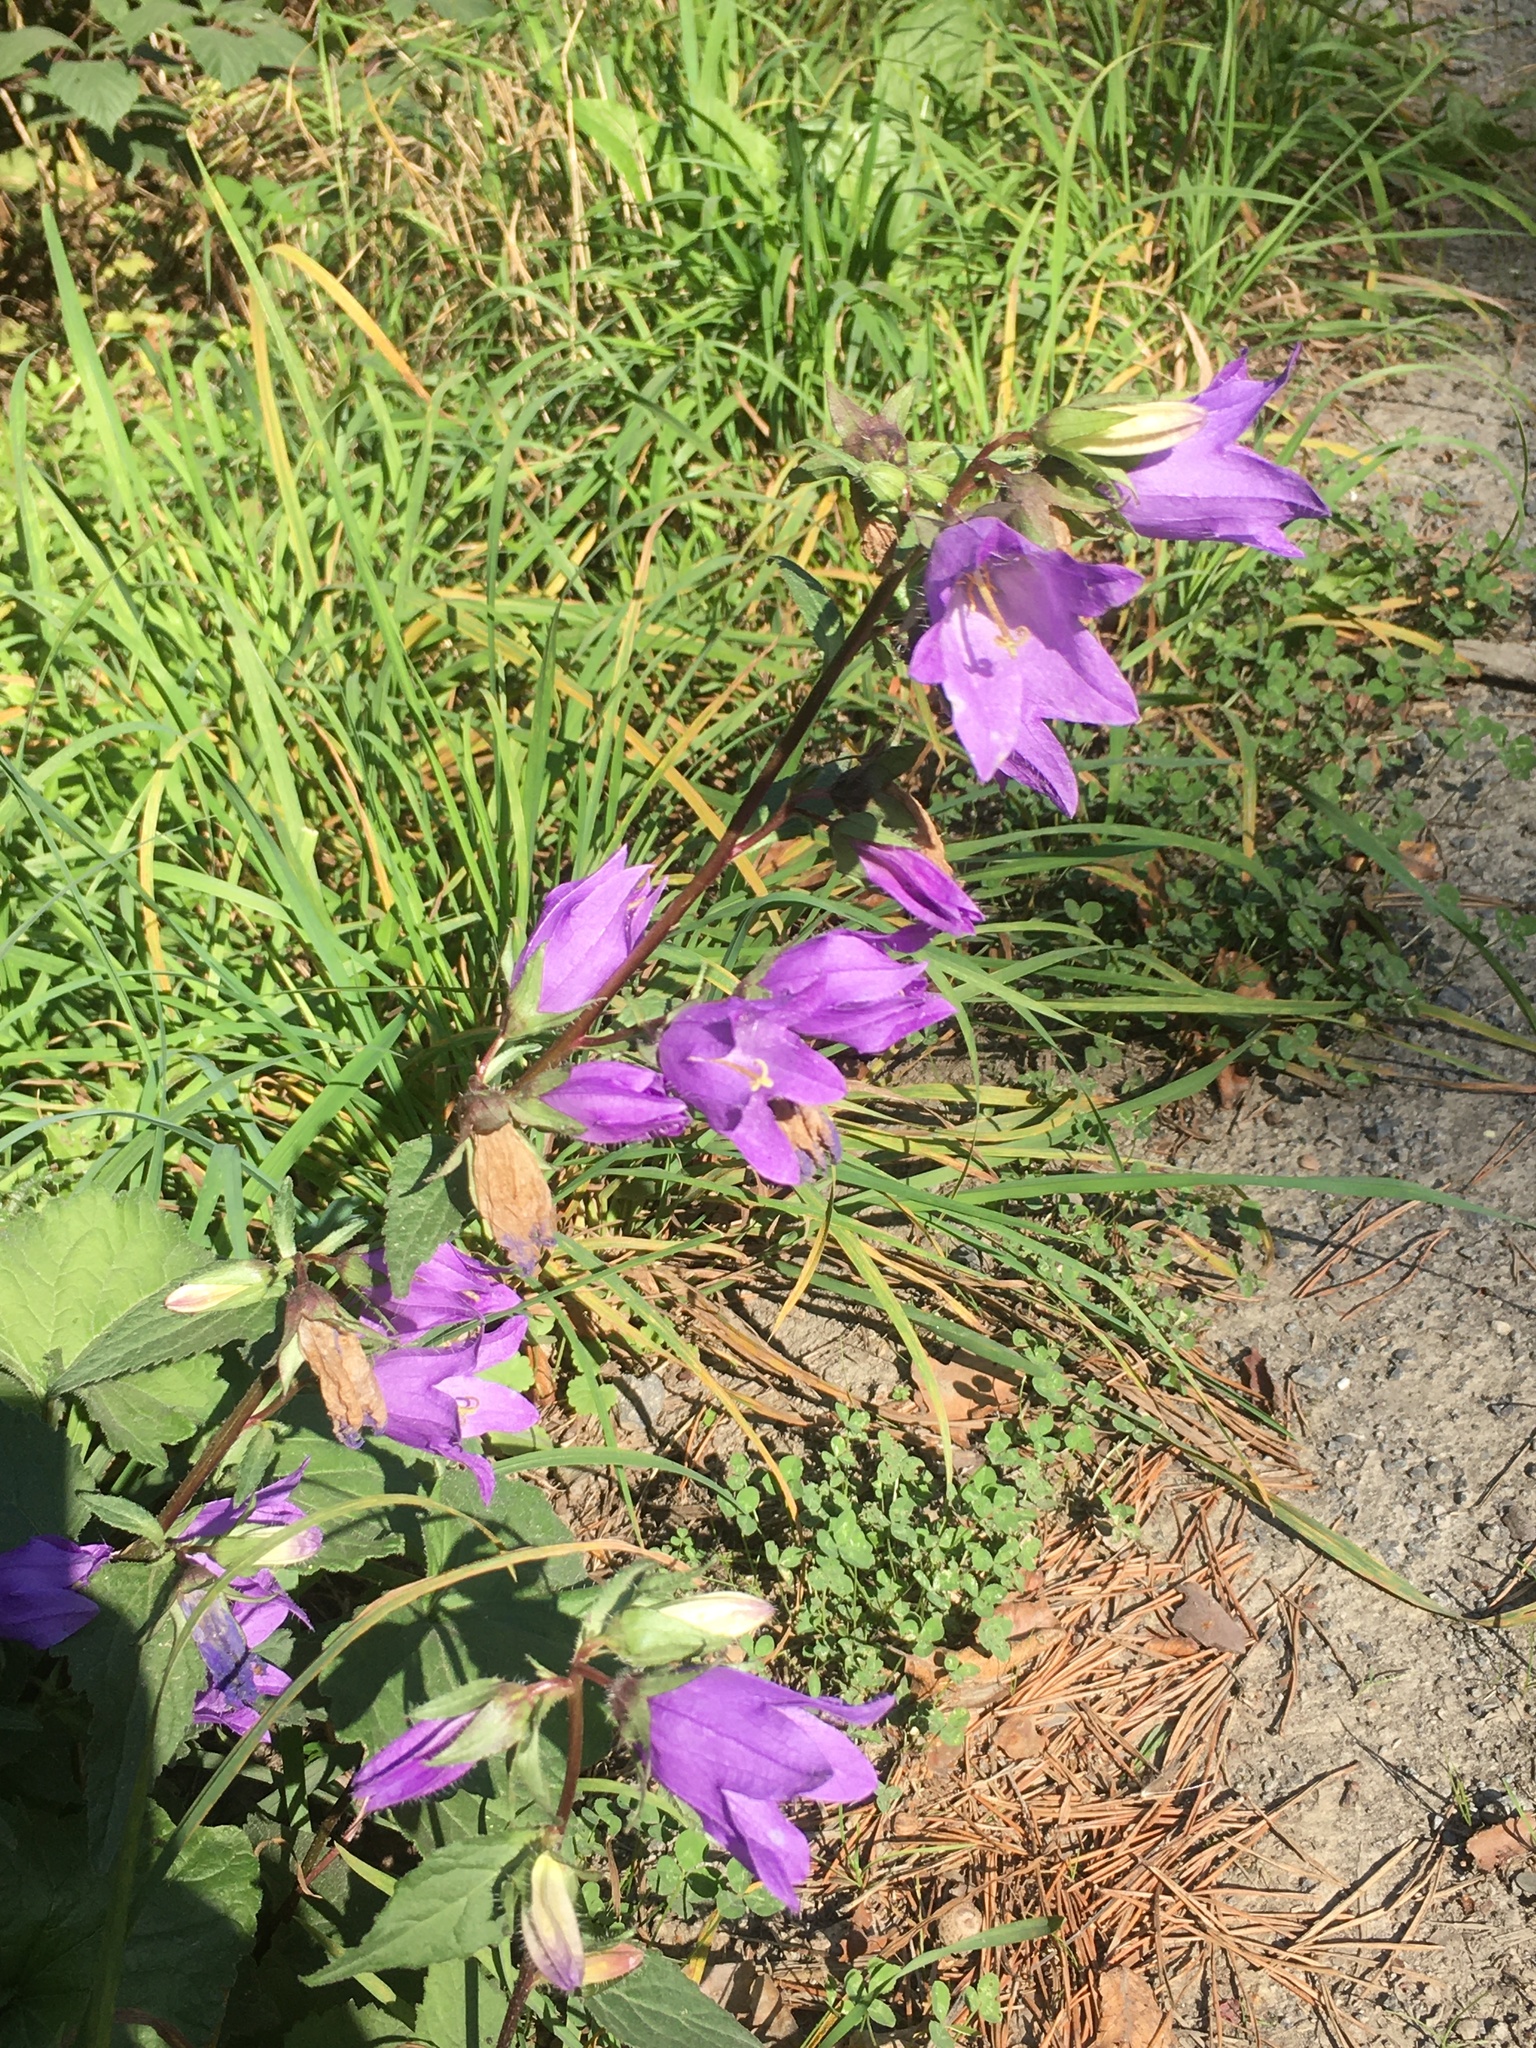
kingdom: Plantae
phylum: Tracheophyta
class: Magnoliopsida
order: Asterales
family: Campanulaceae
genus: Campanula
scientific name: Campanula trachelium
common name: Nettle-leaved bellflower
